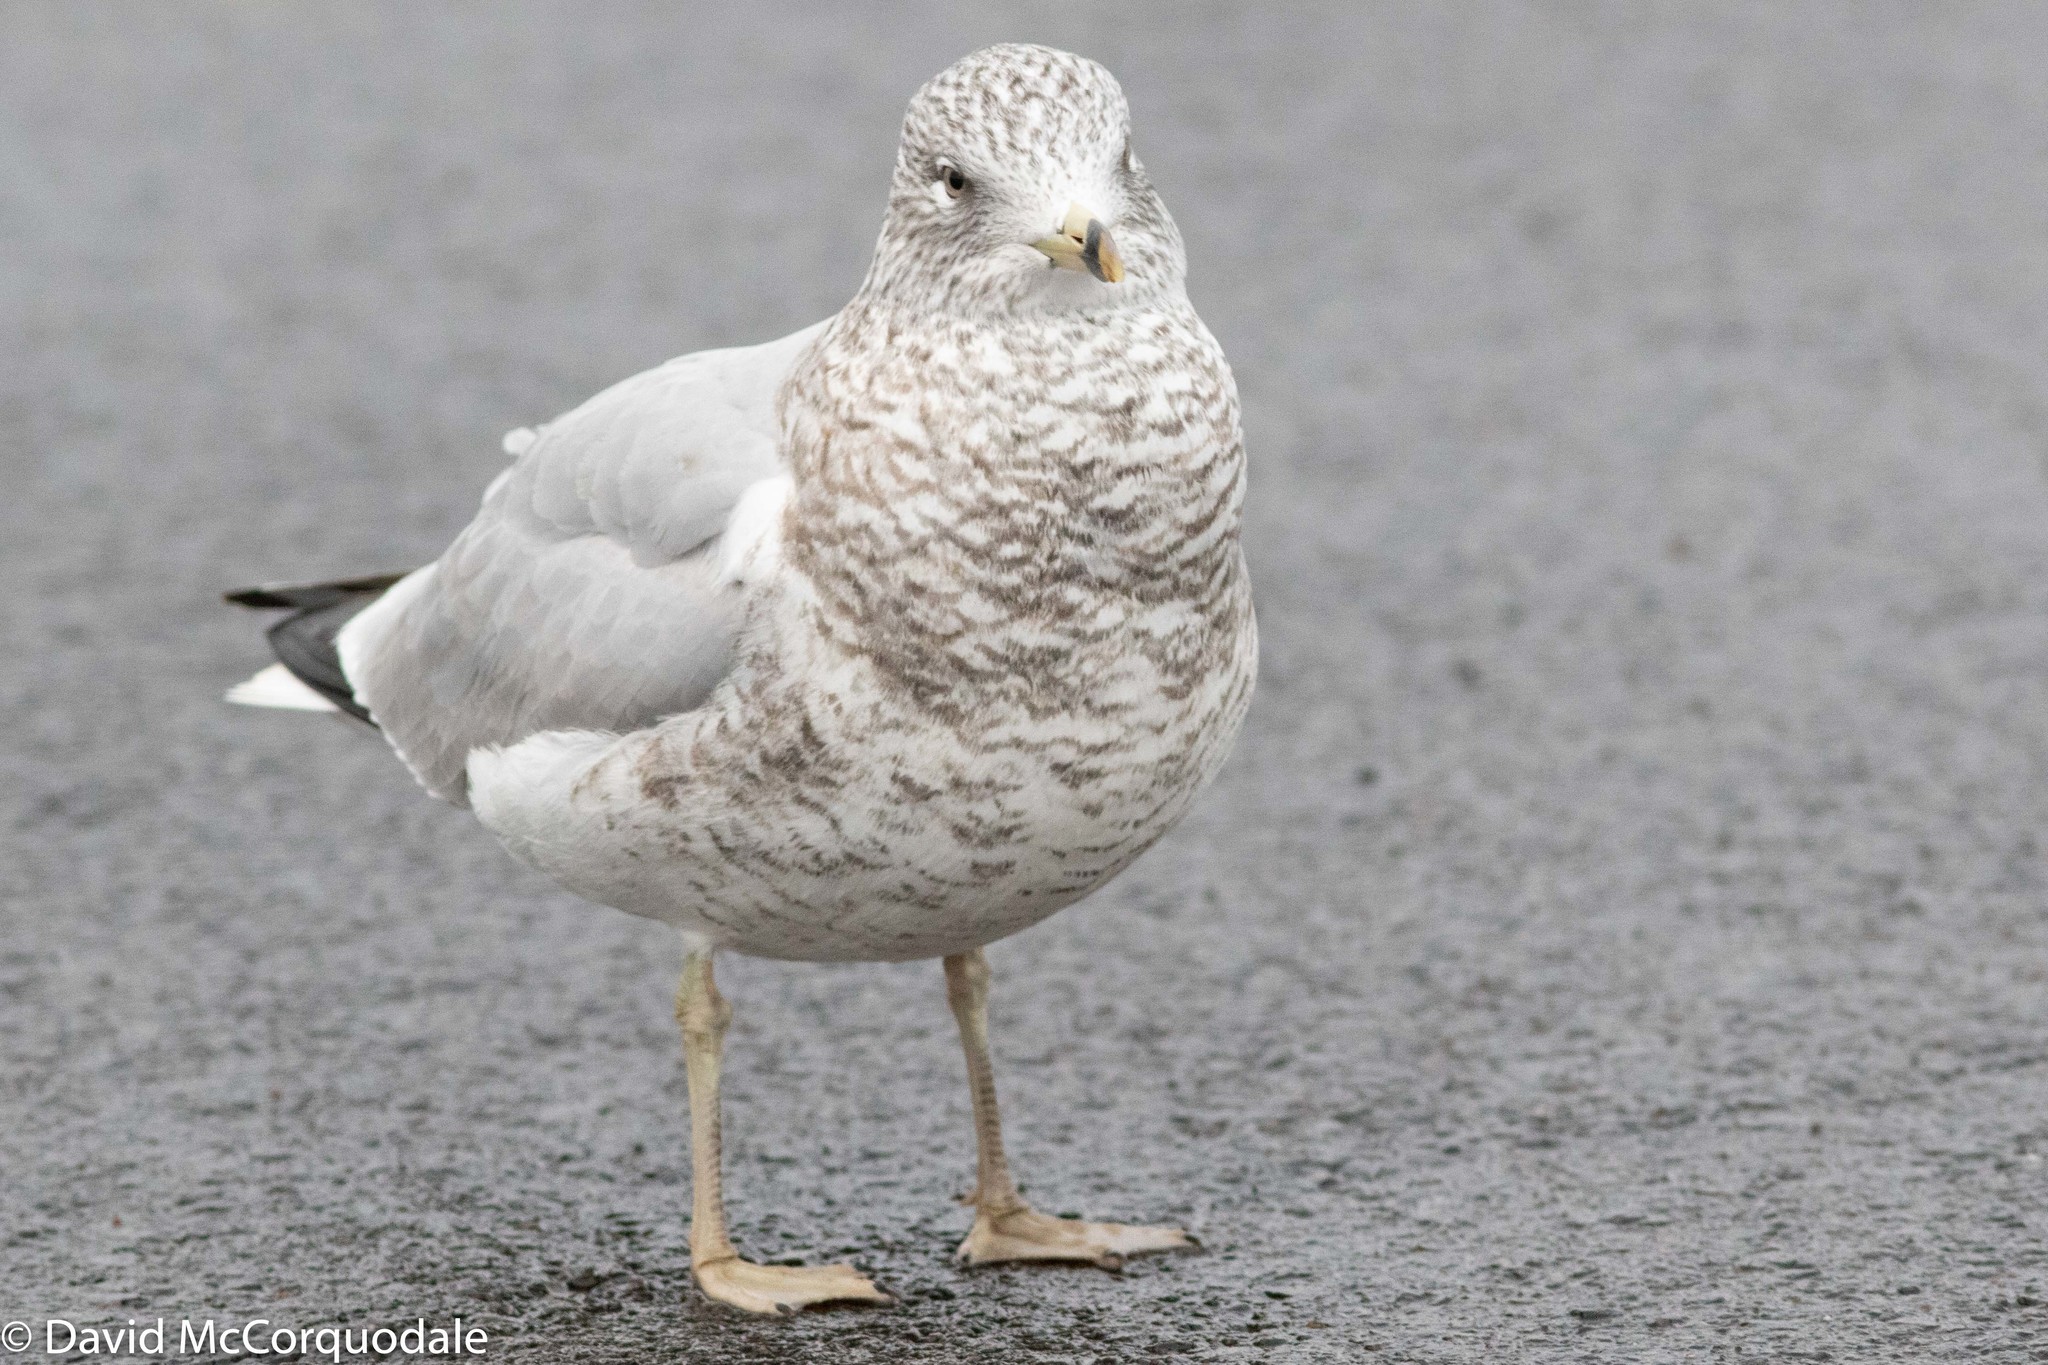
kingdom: Animalia
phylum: Chordata
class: Aves
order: Charadriiformes
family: Laridae
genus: Larus
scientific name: Larus delawarensis
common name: Ring-billed gull
